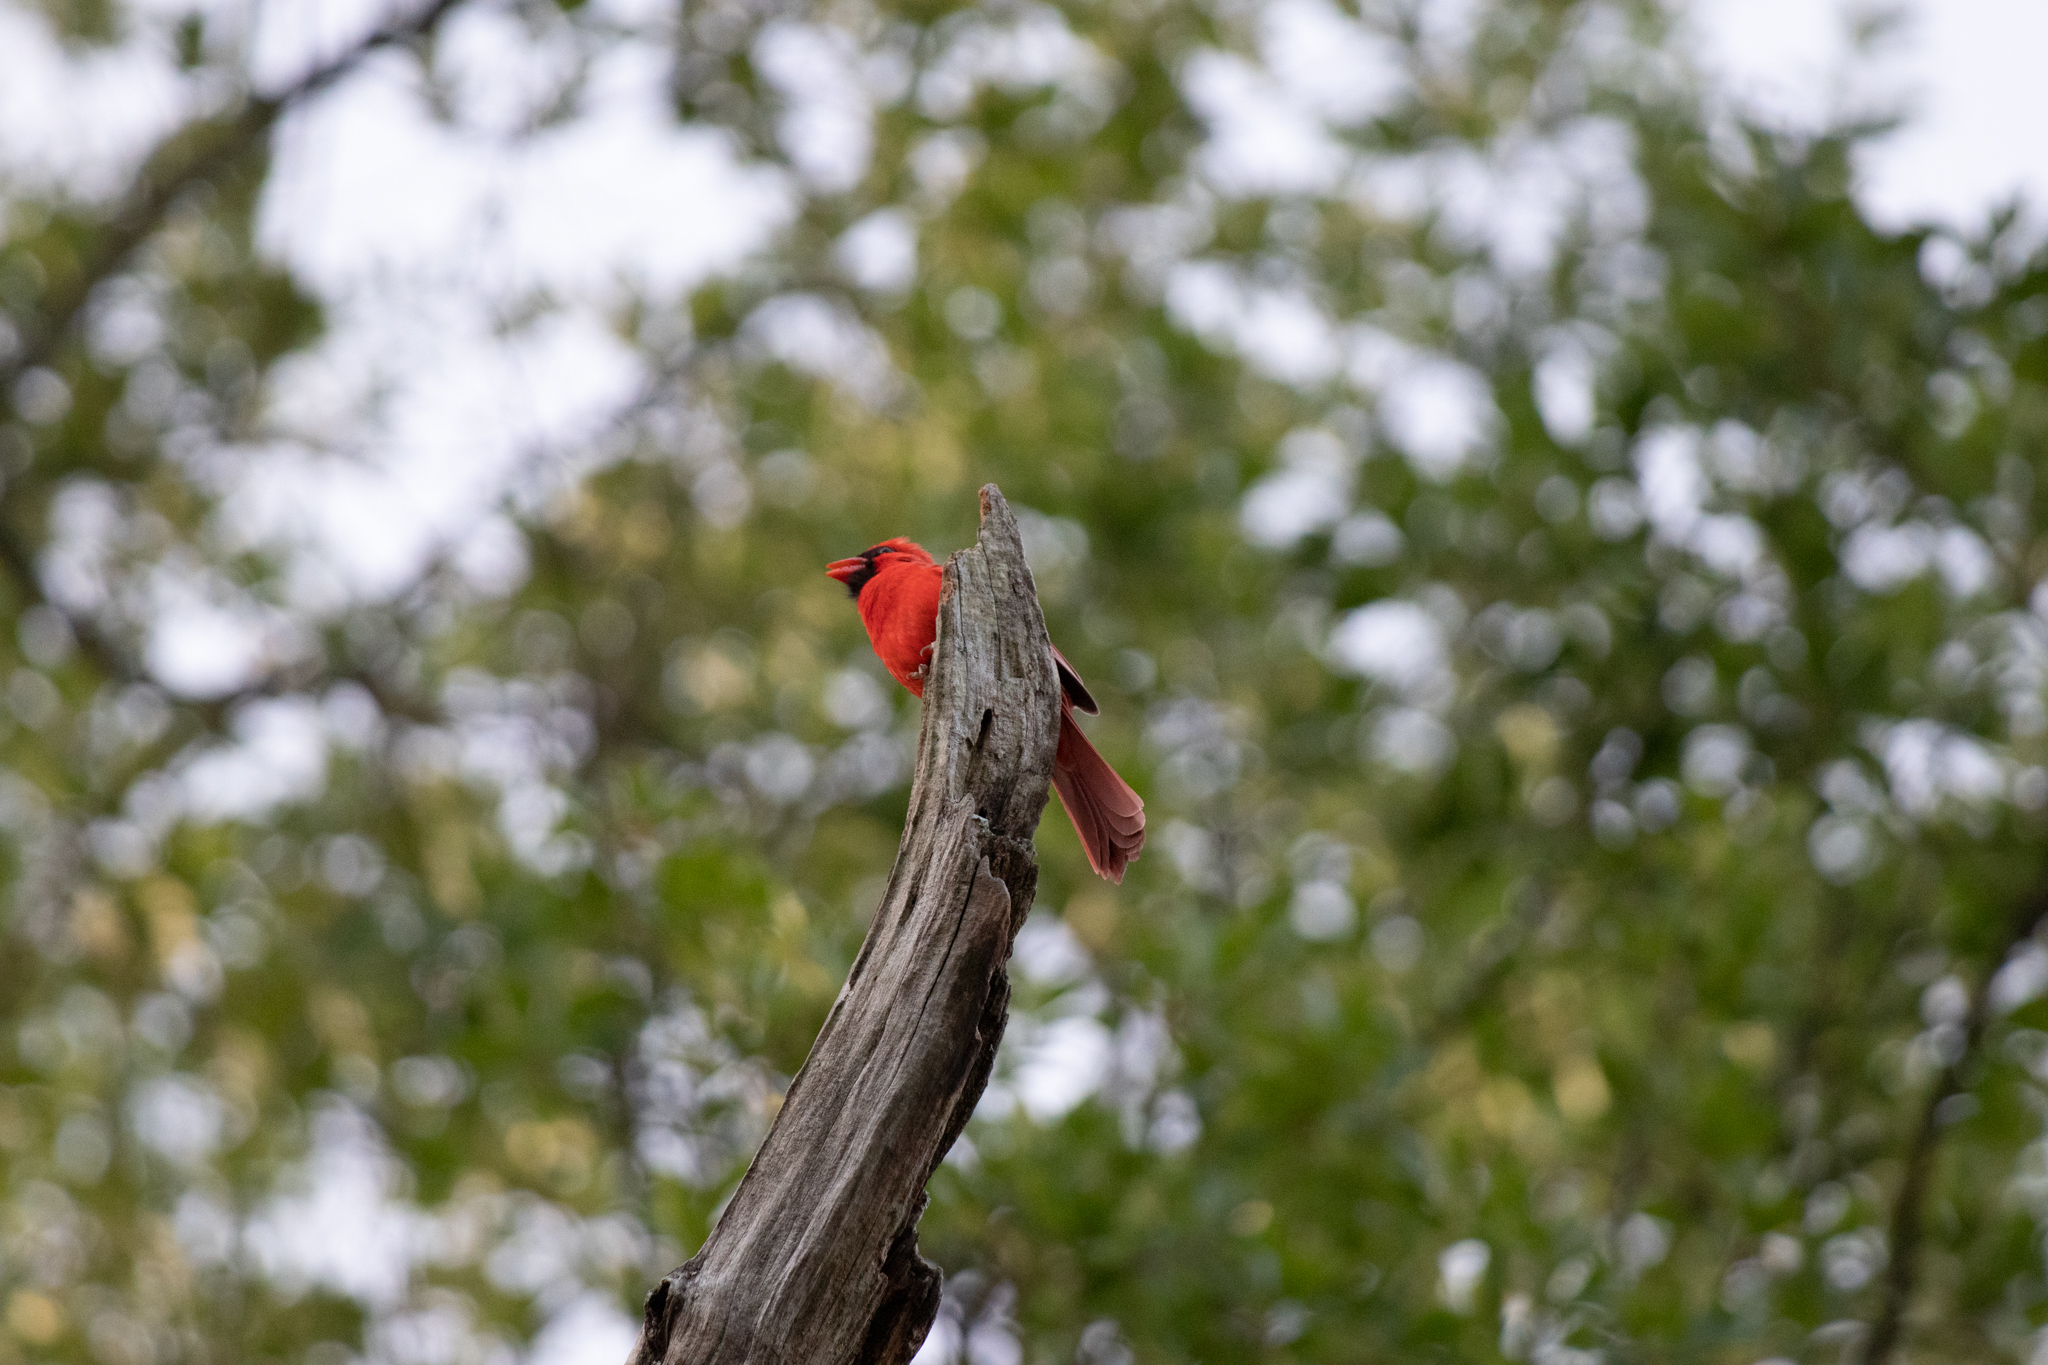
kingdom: Animalia
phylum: Chordata
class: Aves
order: Passeriformes
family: Cardinalidae
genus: Cardinalis
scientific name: Cardinalis cardinalis
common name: Northern cardinal
